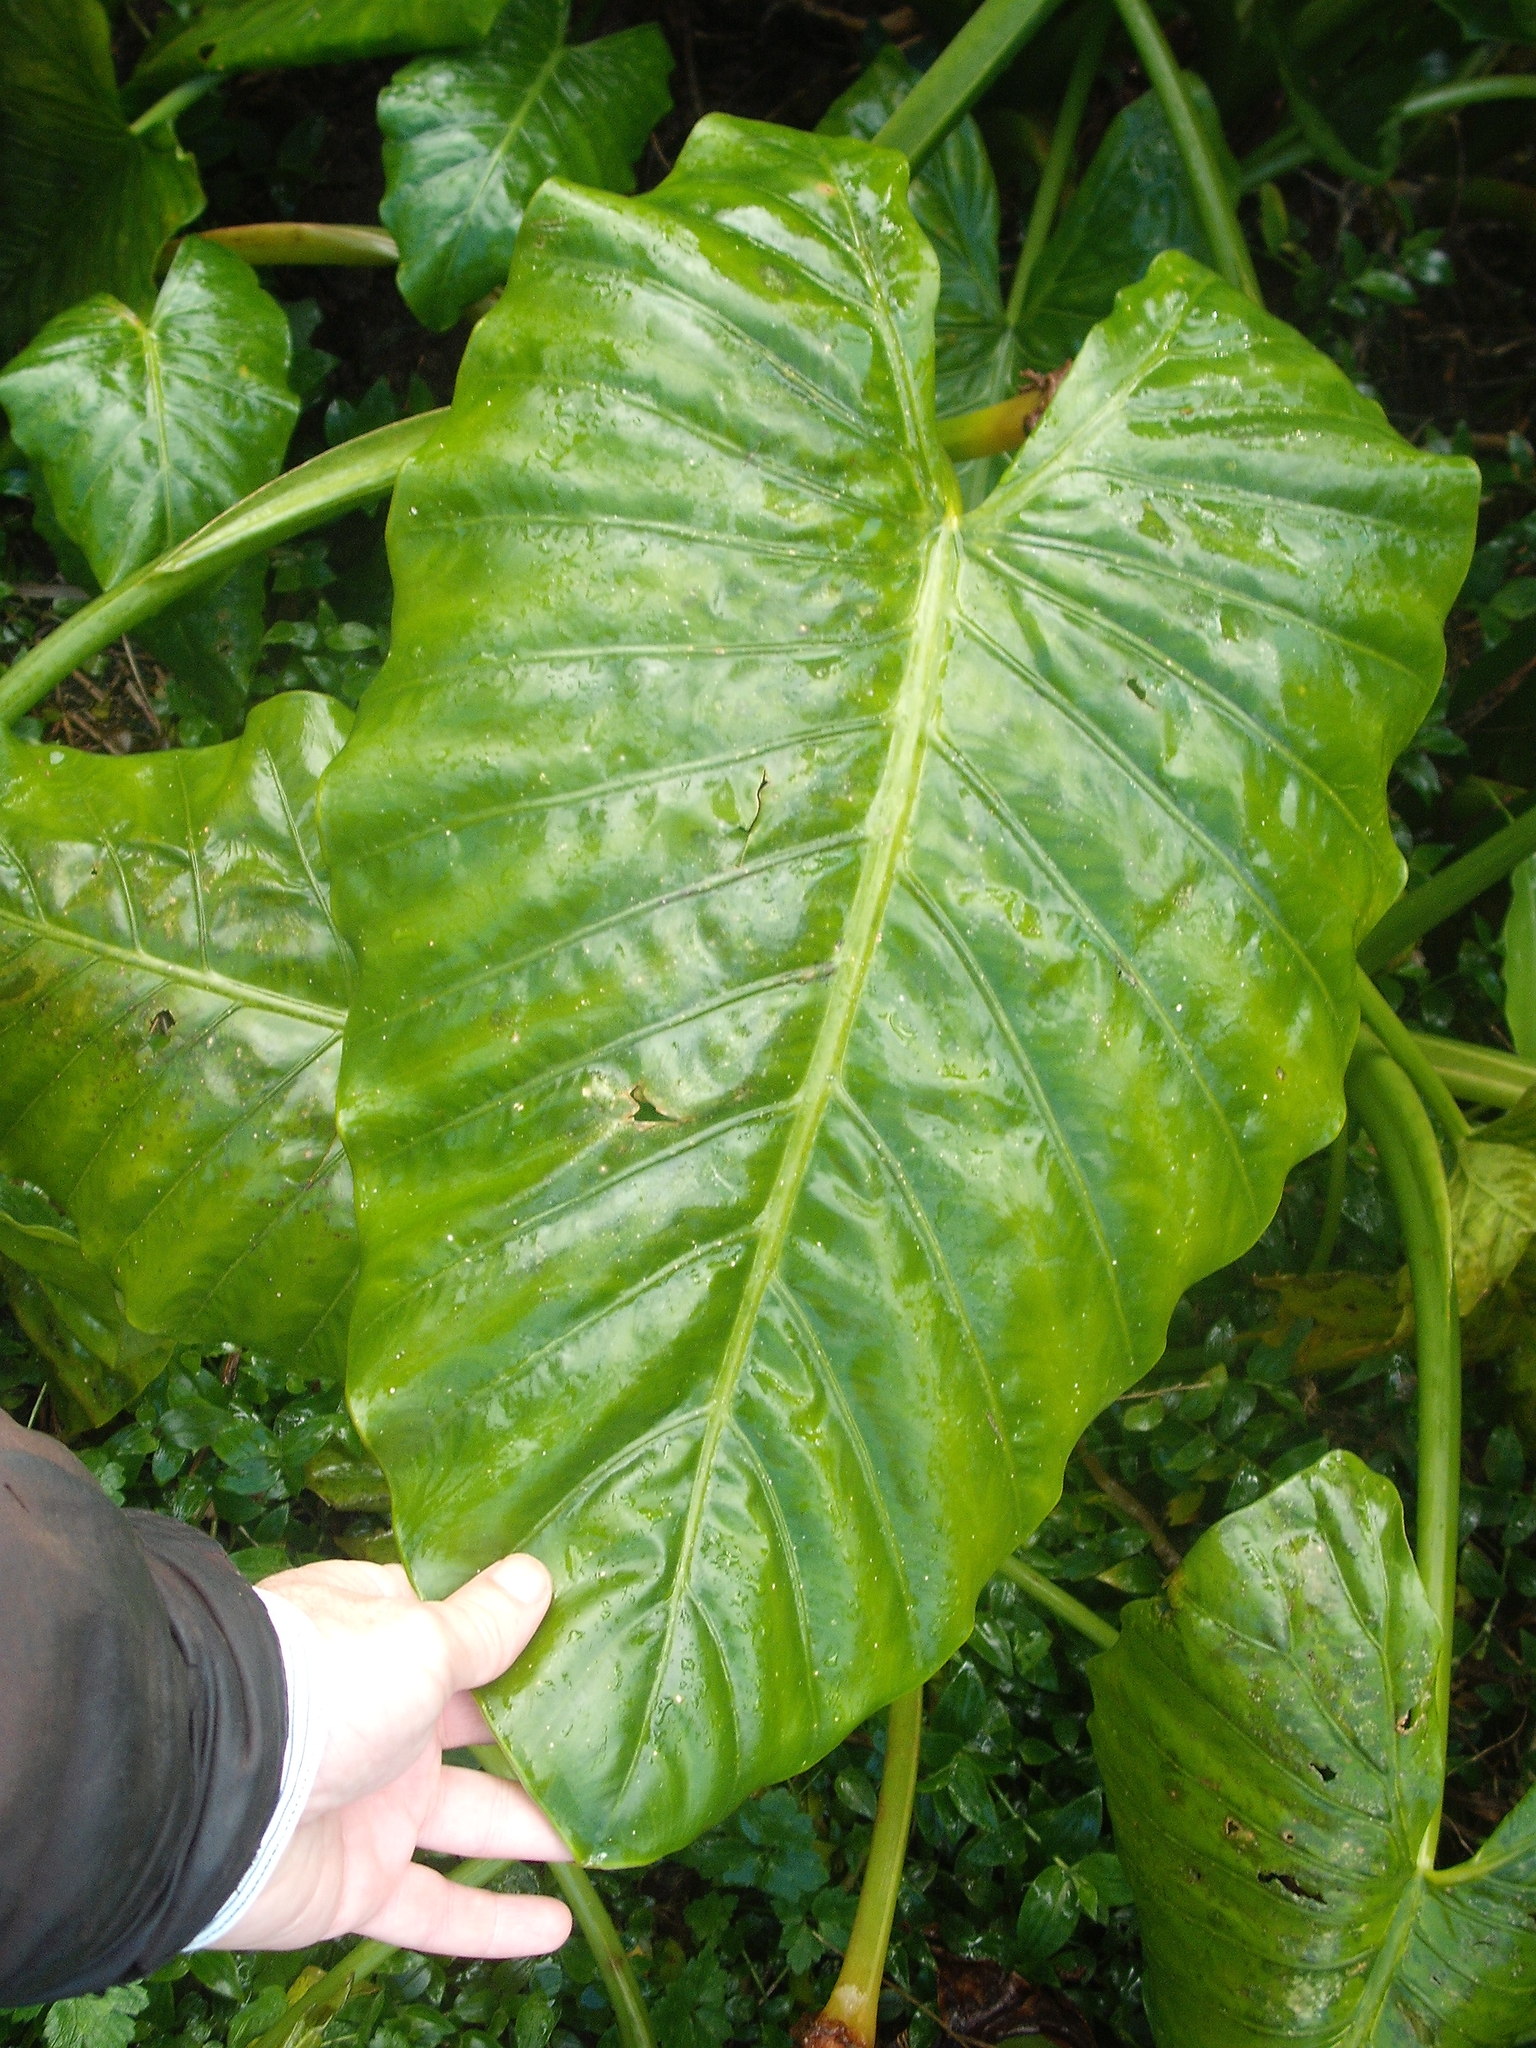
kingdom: Plantae
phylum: Tracheophyta
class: Liliopsida
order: Alismatales
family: Araceae
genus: Alocasia
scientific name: Alocasia brisbanensis
